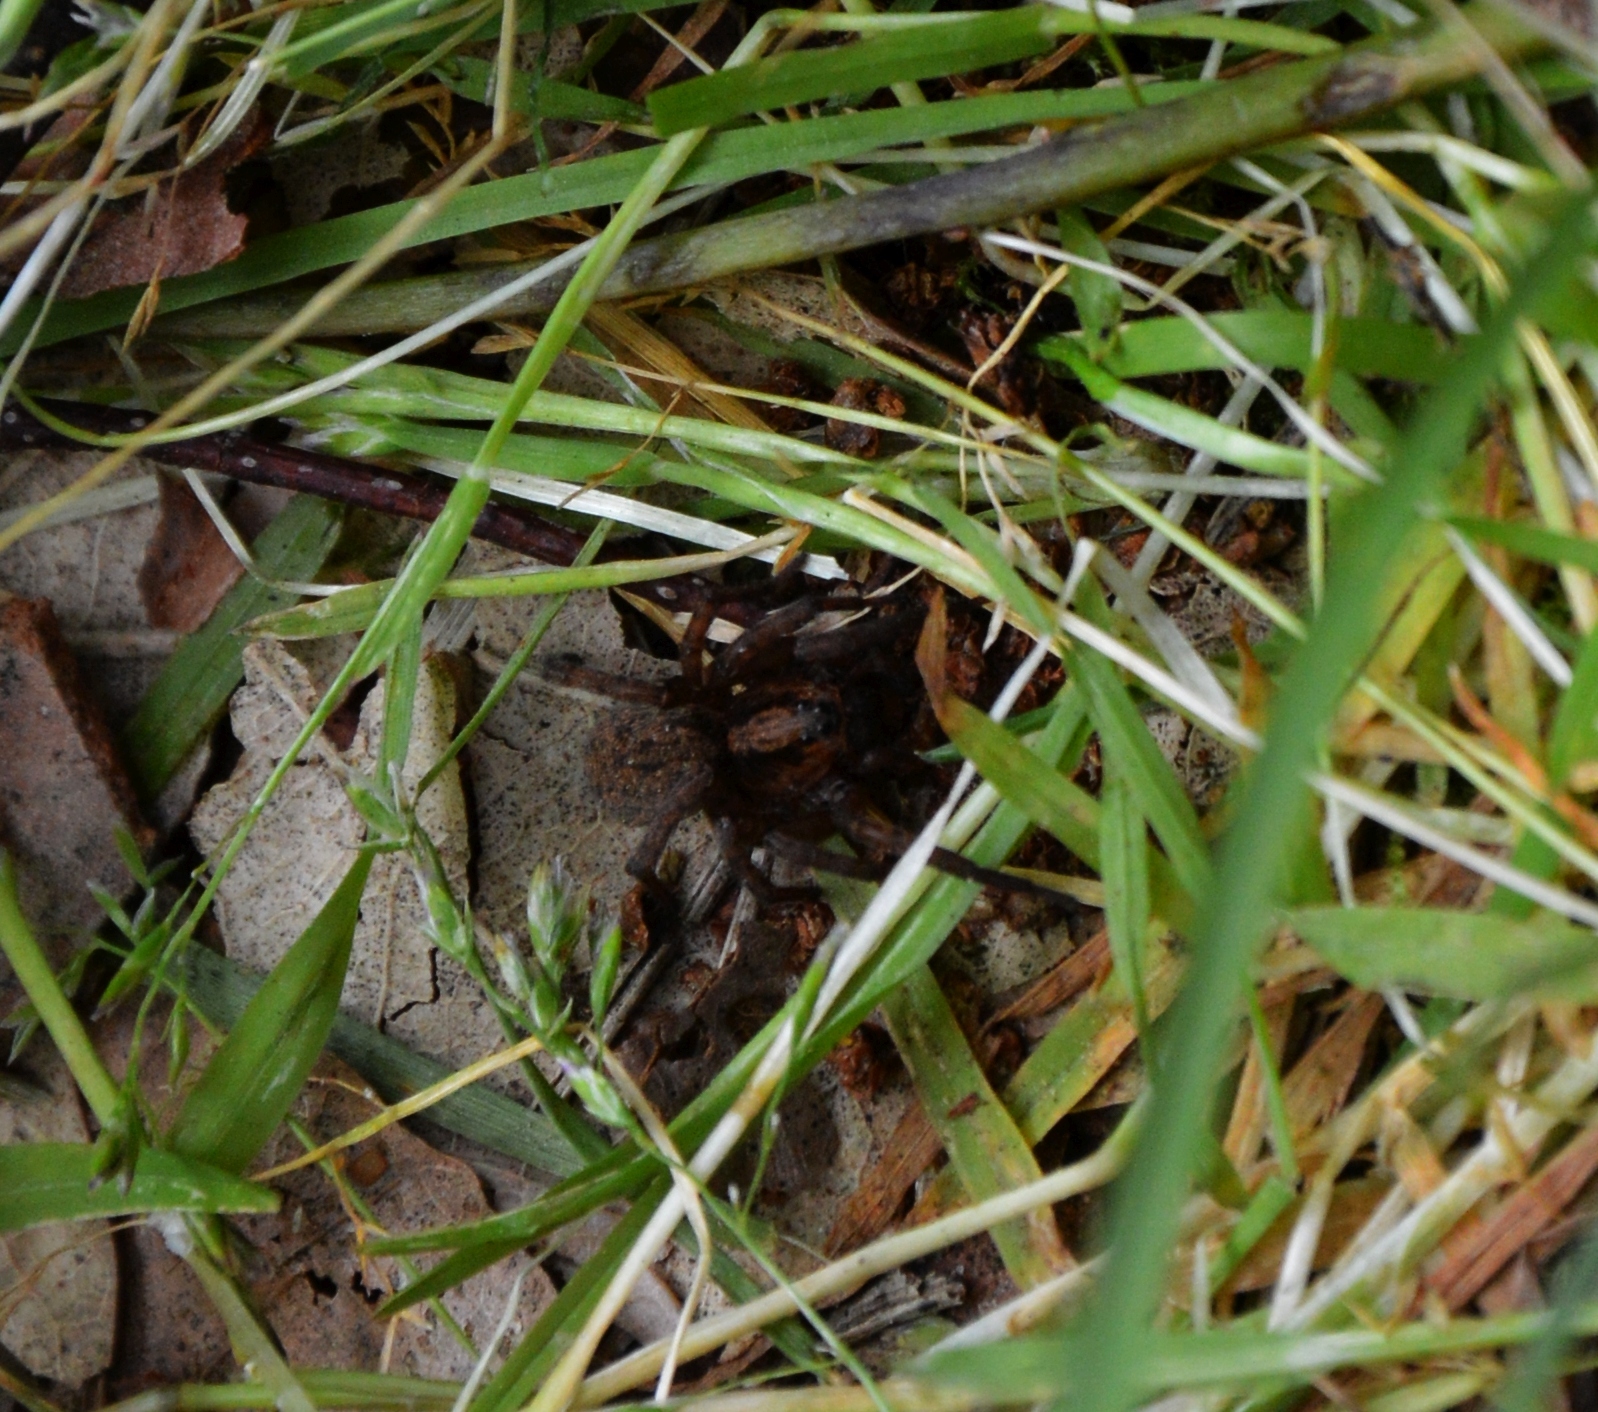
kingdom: Animalia
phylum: Arthropoda
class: Arachnida
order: Araneae
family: Lycosidae
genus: Trochosa
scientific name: Trochosa
